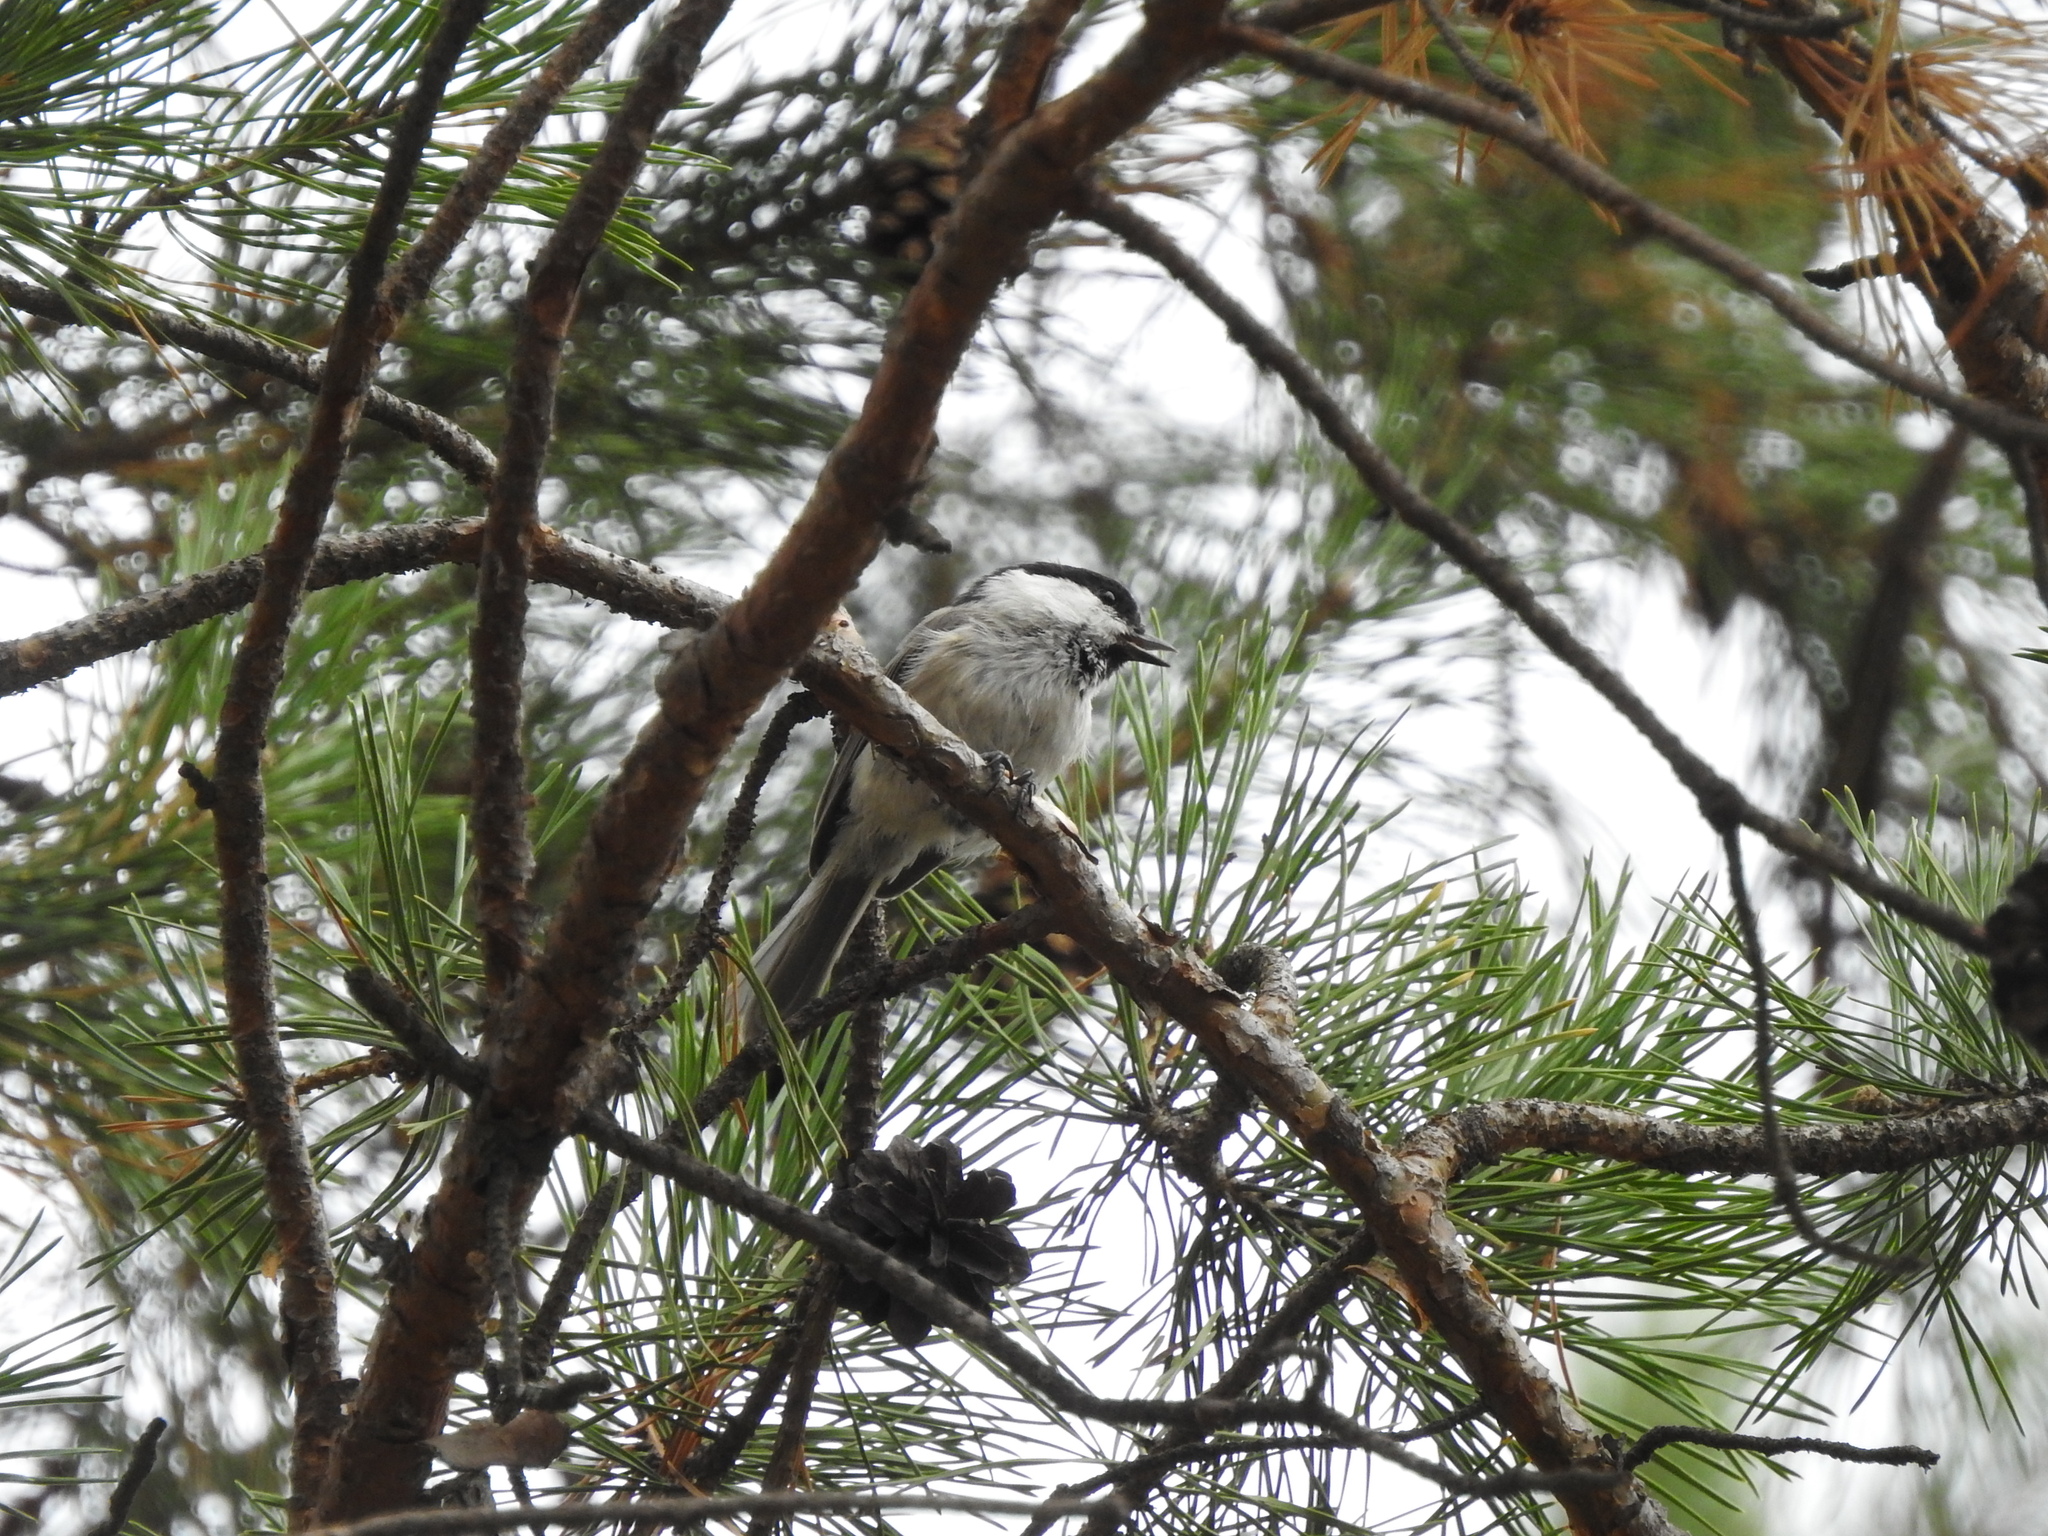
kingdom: Animalia
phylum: Chordata
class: Aves
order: Passeriformes
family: Paridae
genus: Poecile
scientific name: Poecile montanus
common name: Willow tit
